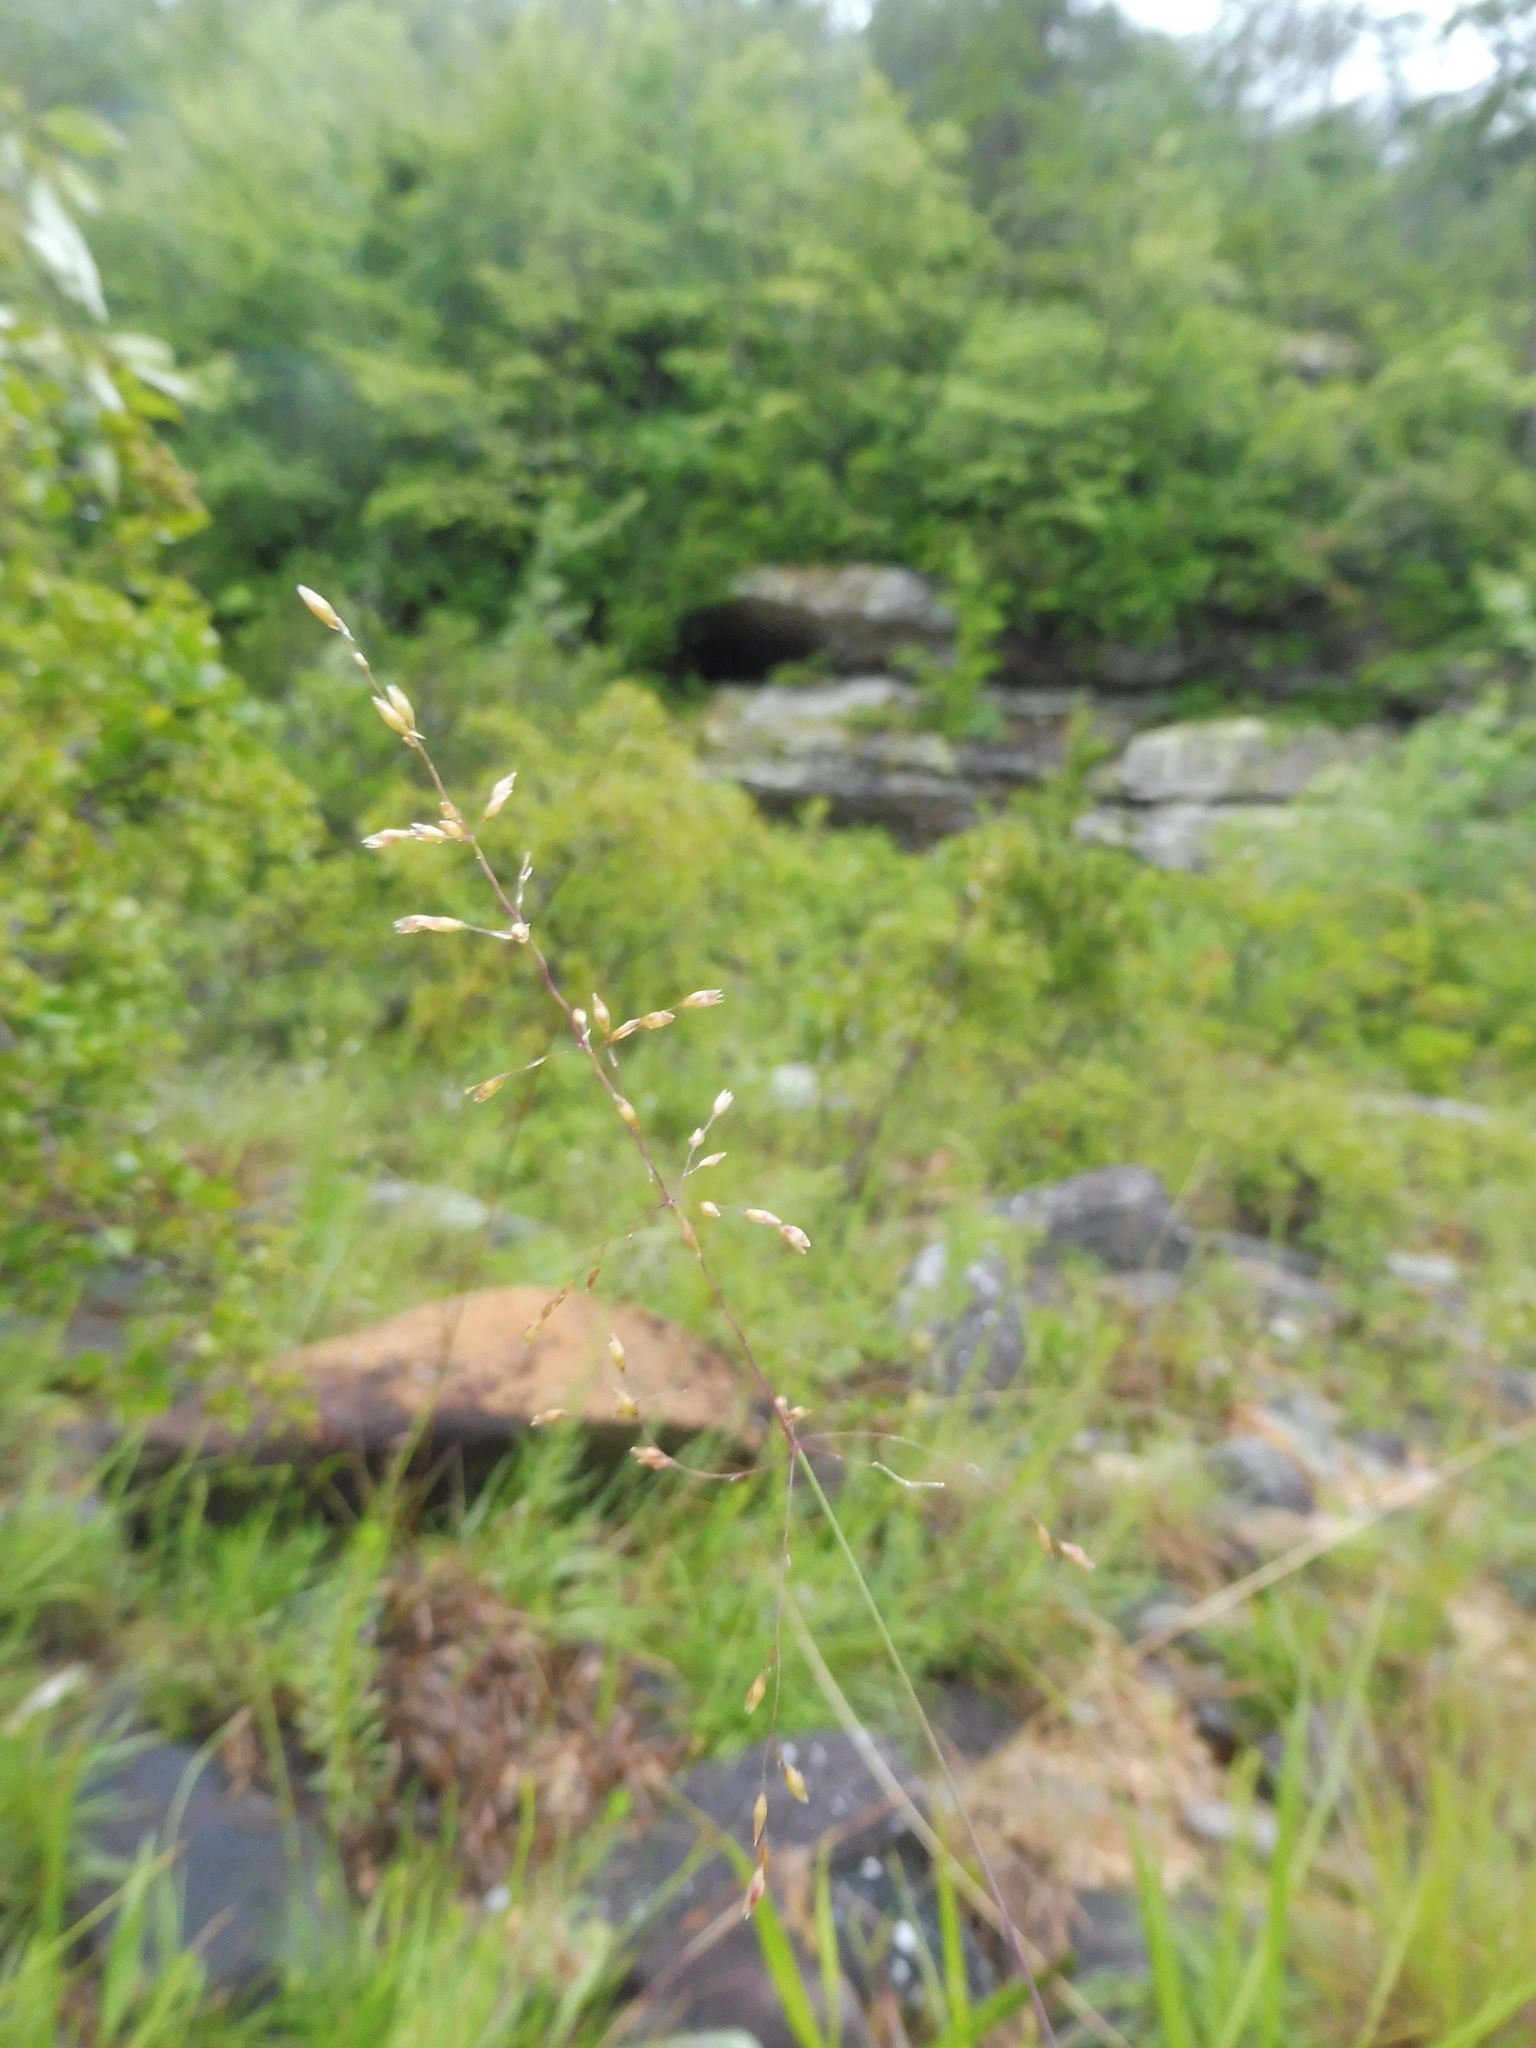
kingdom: Plantae
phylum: Tracheophyta
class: Liliopsida
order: Poales
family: Poaceae
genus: Sporobolus
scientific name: Sporobolus junceus
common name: Lizard grass
